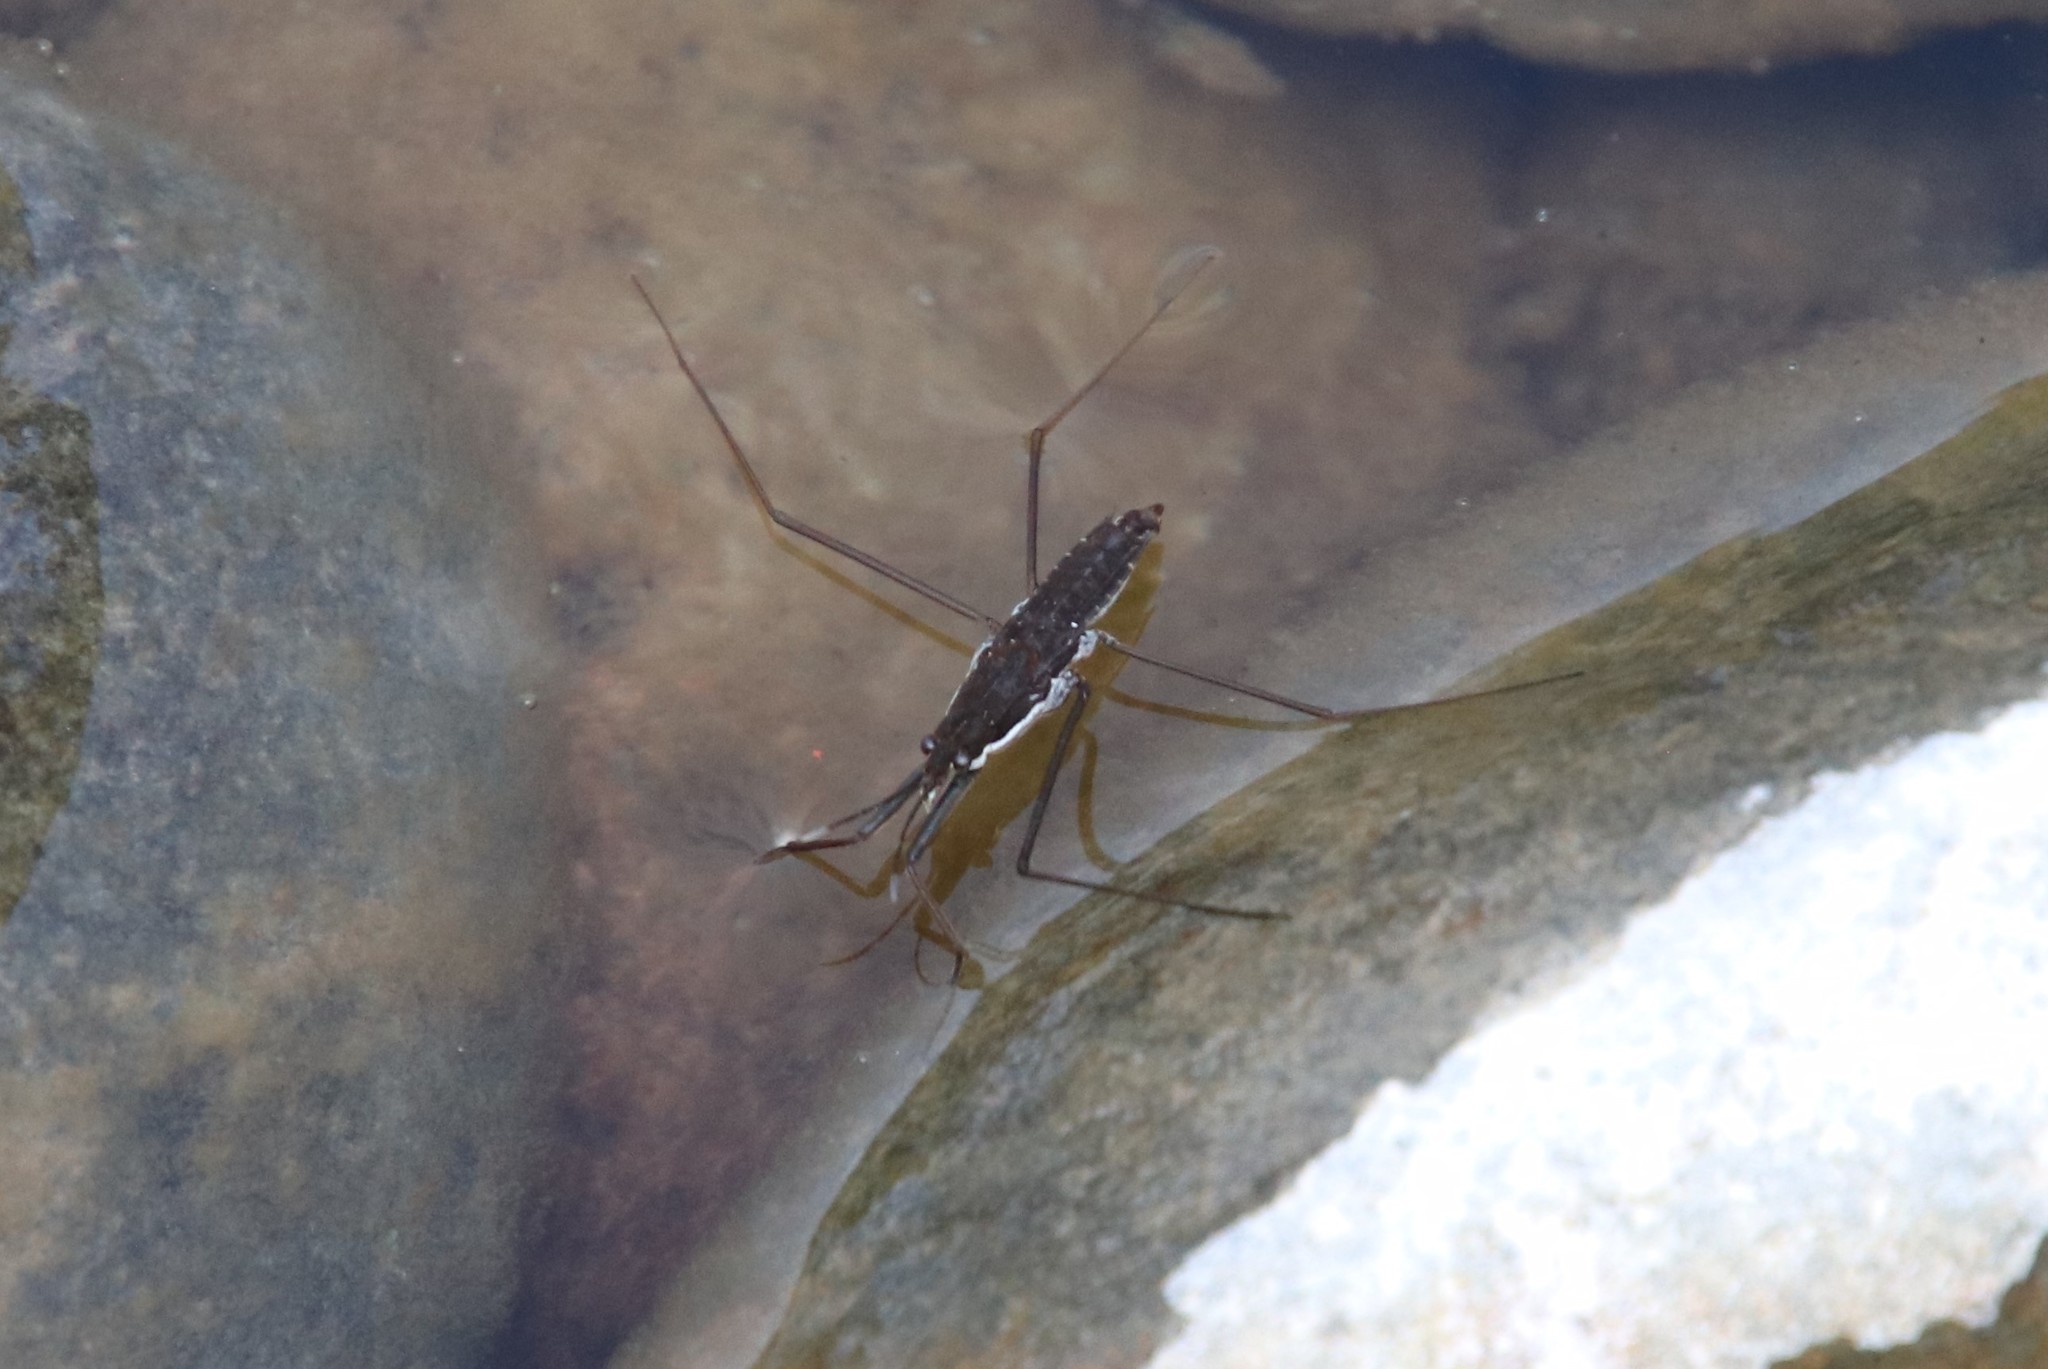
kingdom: Animalia
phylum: Arthropoda
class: Insecta
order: Hemiptera
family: Gerridae
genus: Aquarius
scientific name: Aquarius remigis
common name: Common water strider
